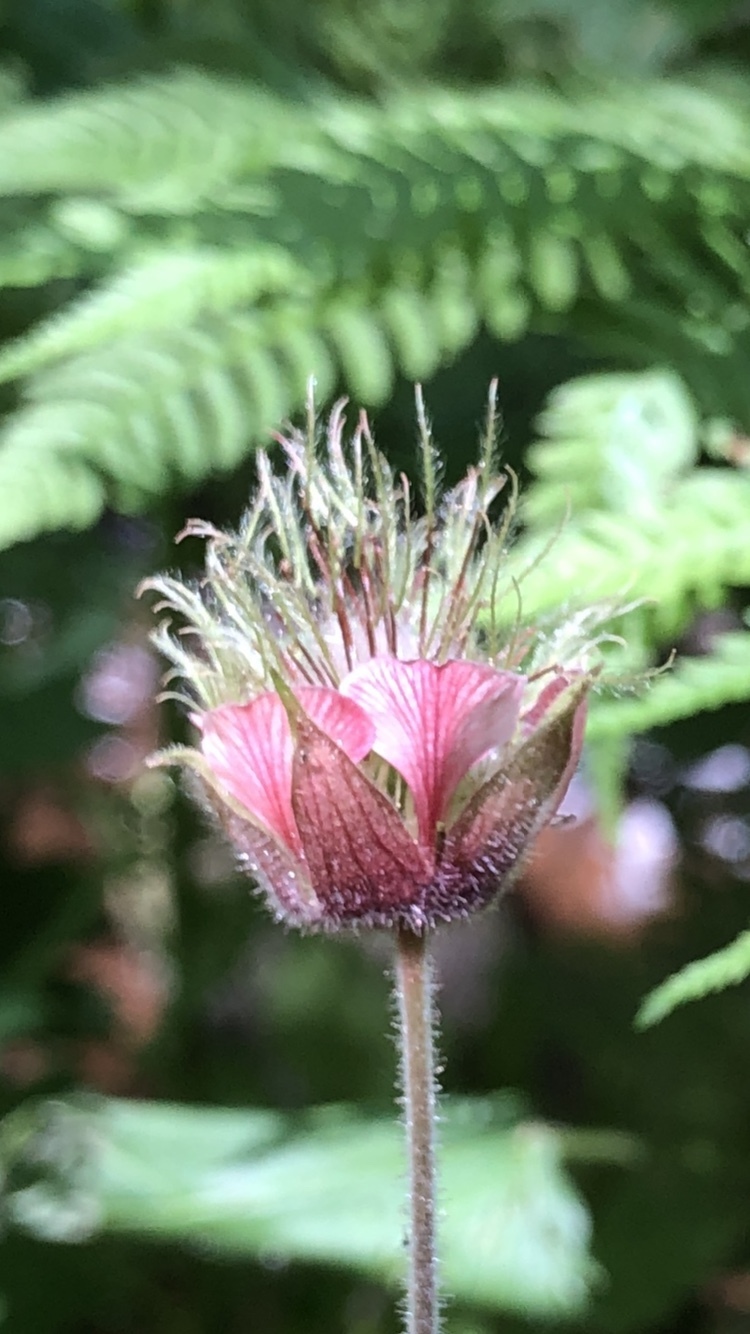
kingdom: Plantae
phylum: Tracheophyta
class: Magnoliopsida
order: Rosales
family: Rosaceae
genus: Geum
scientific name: Geum rivale
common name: Water avens
